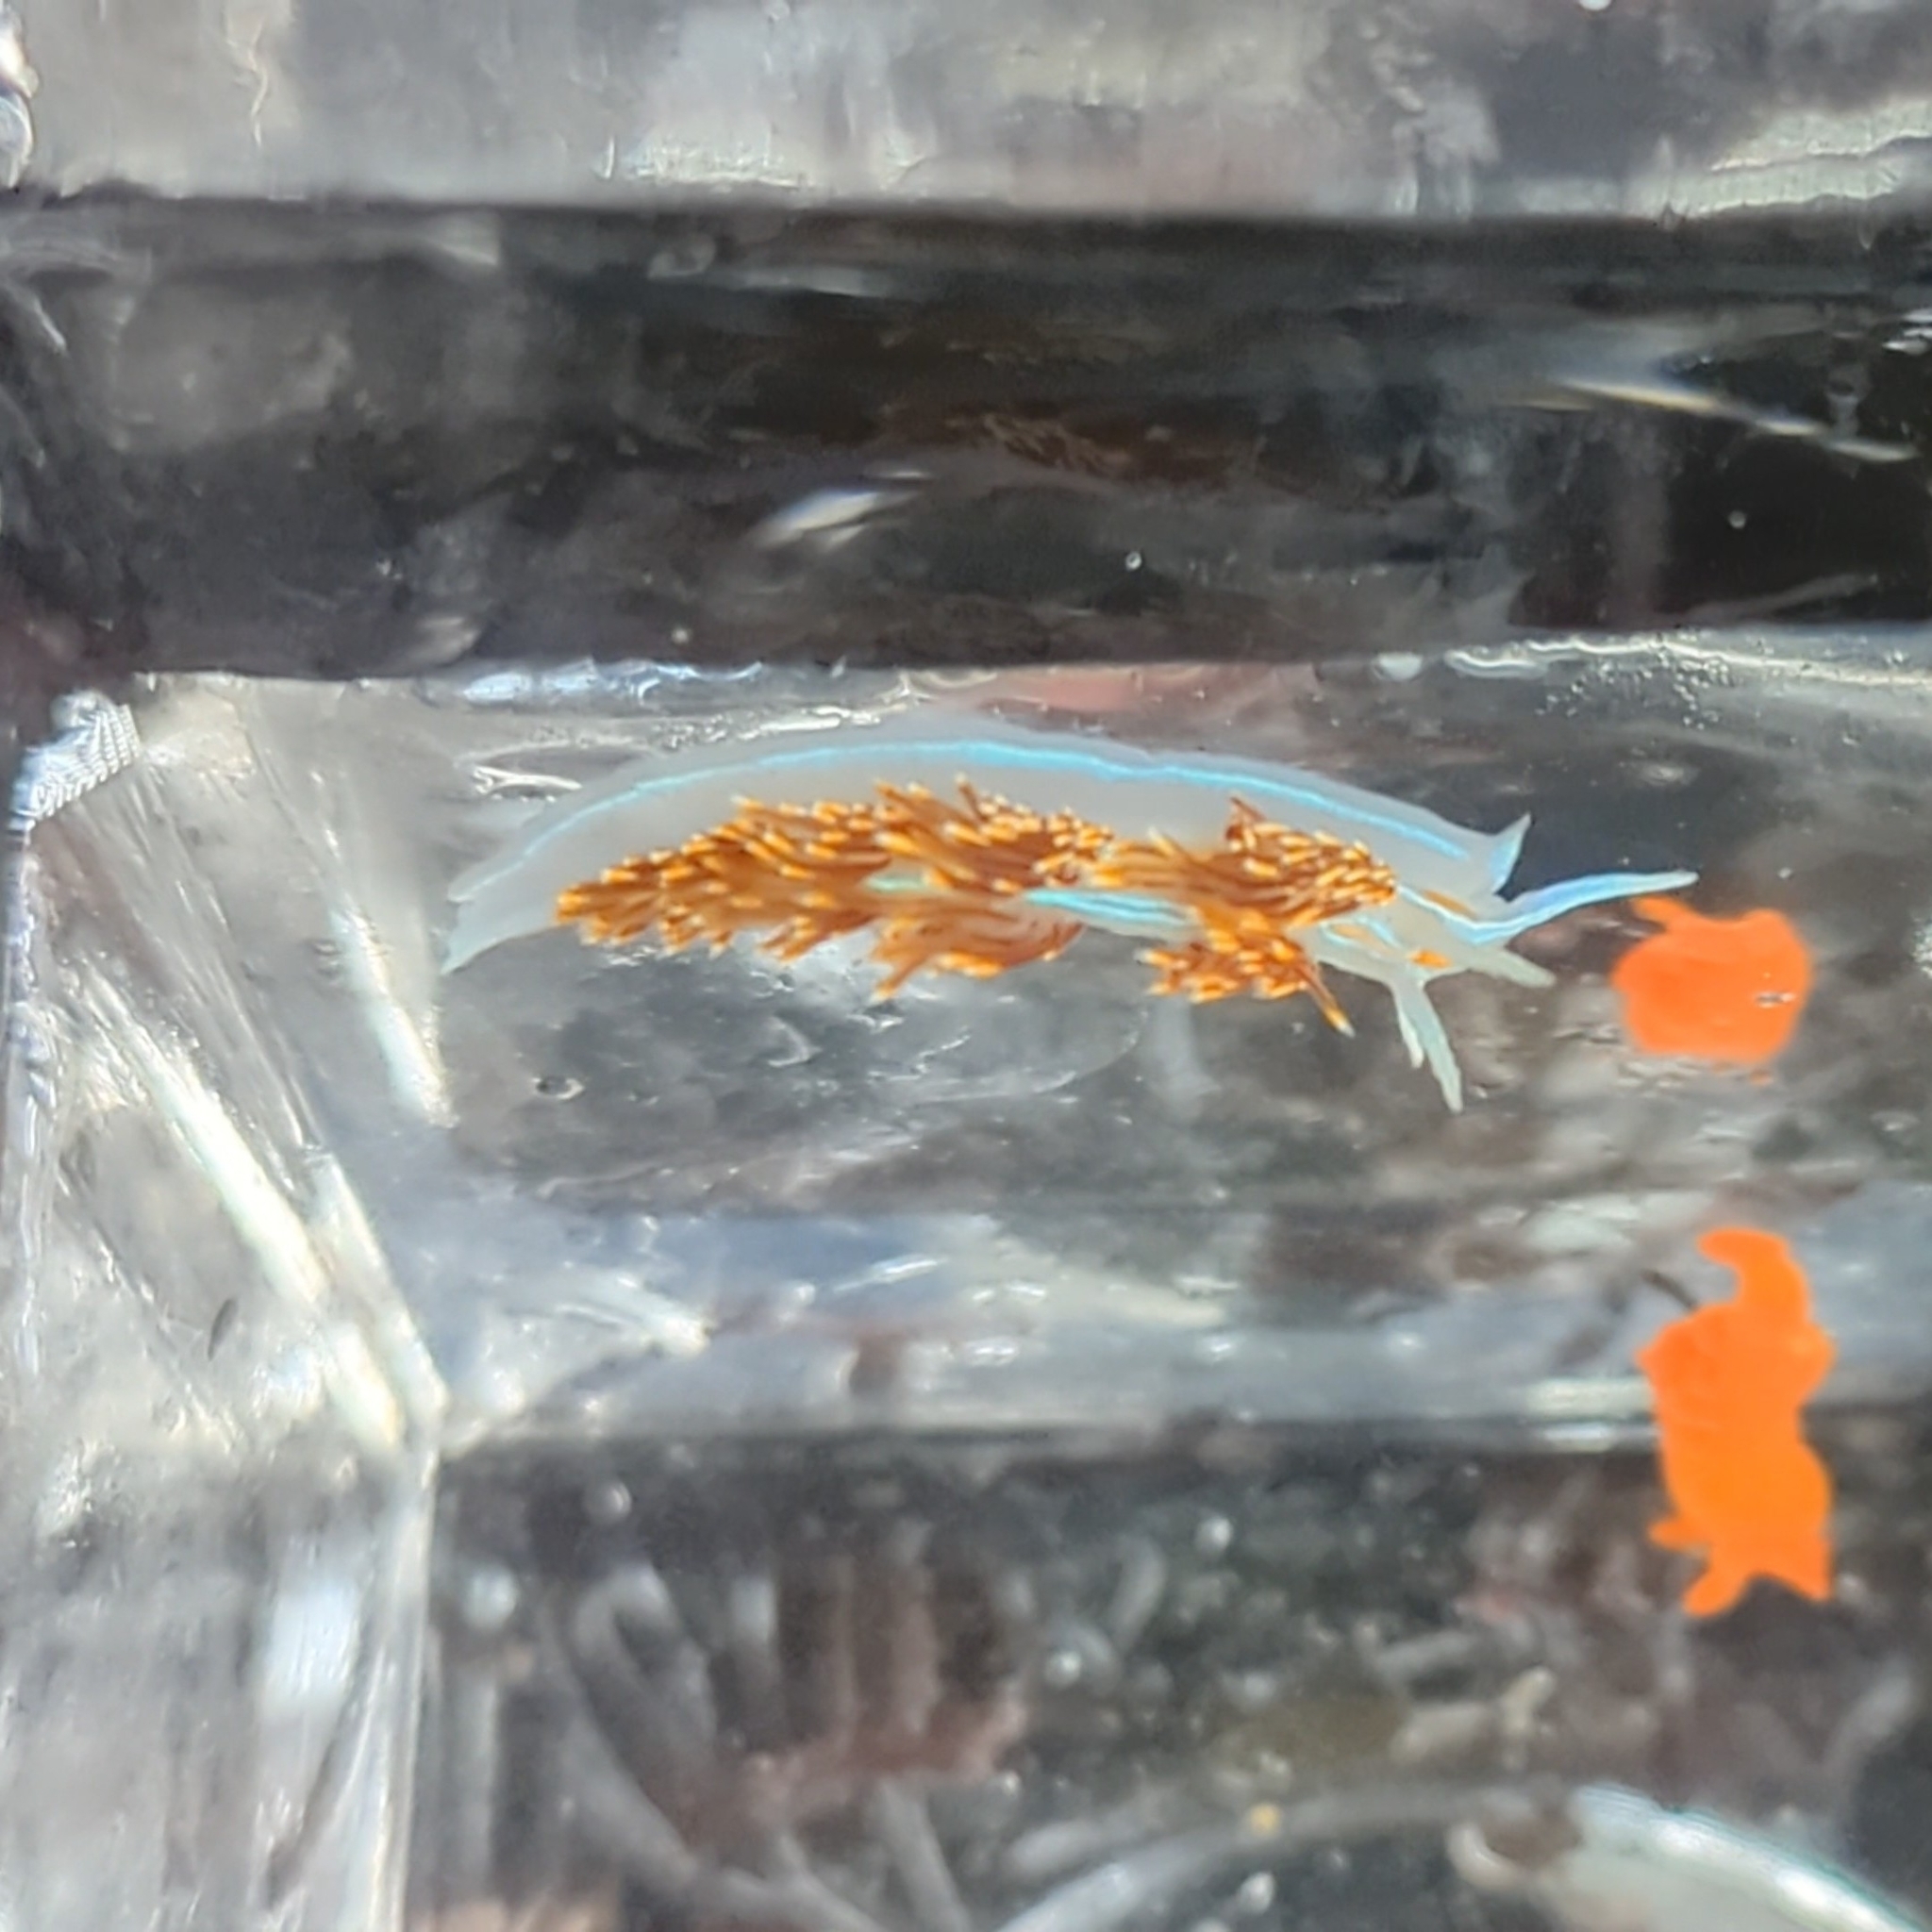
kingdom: Animalia
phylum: Mollusca
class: Gastropoda
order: Nudibranchia
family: Myrrhinidae
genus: Hermissenda
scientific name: Hermissenda opalescens
